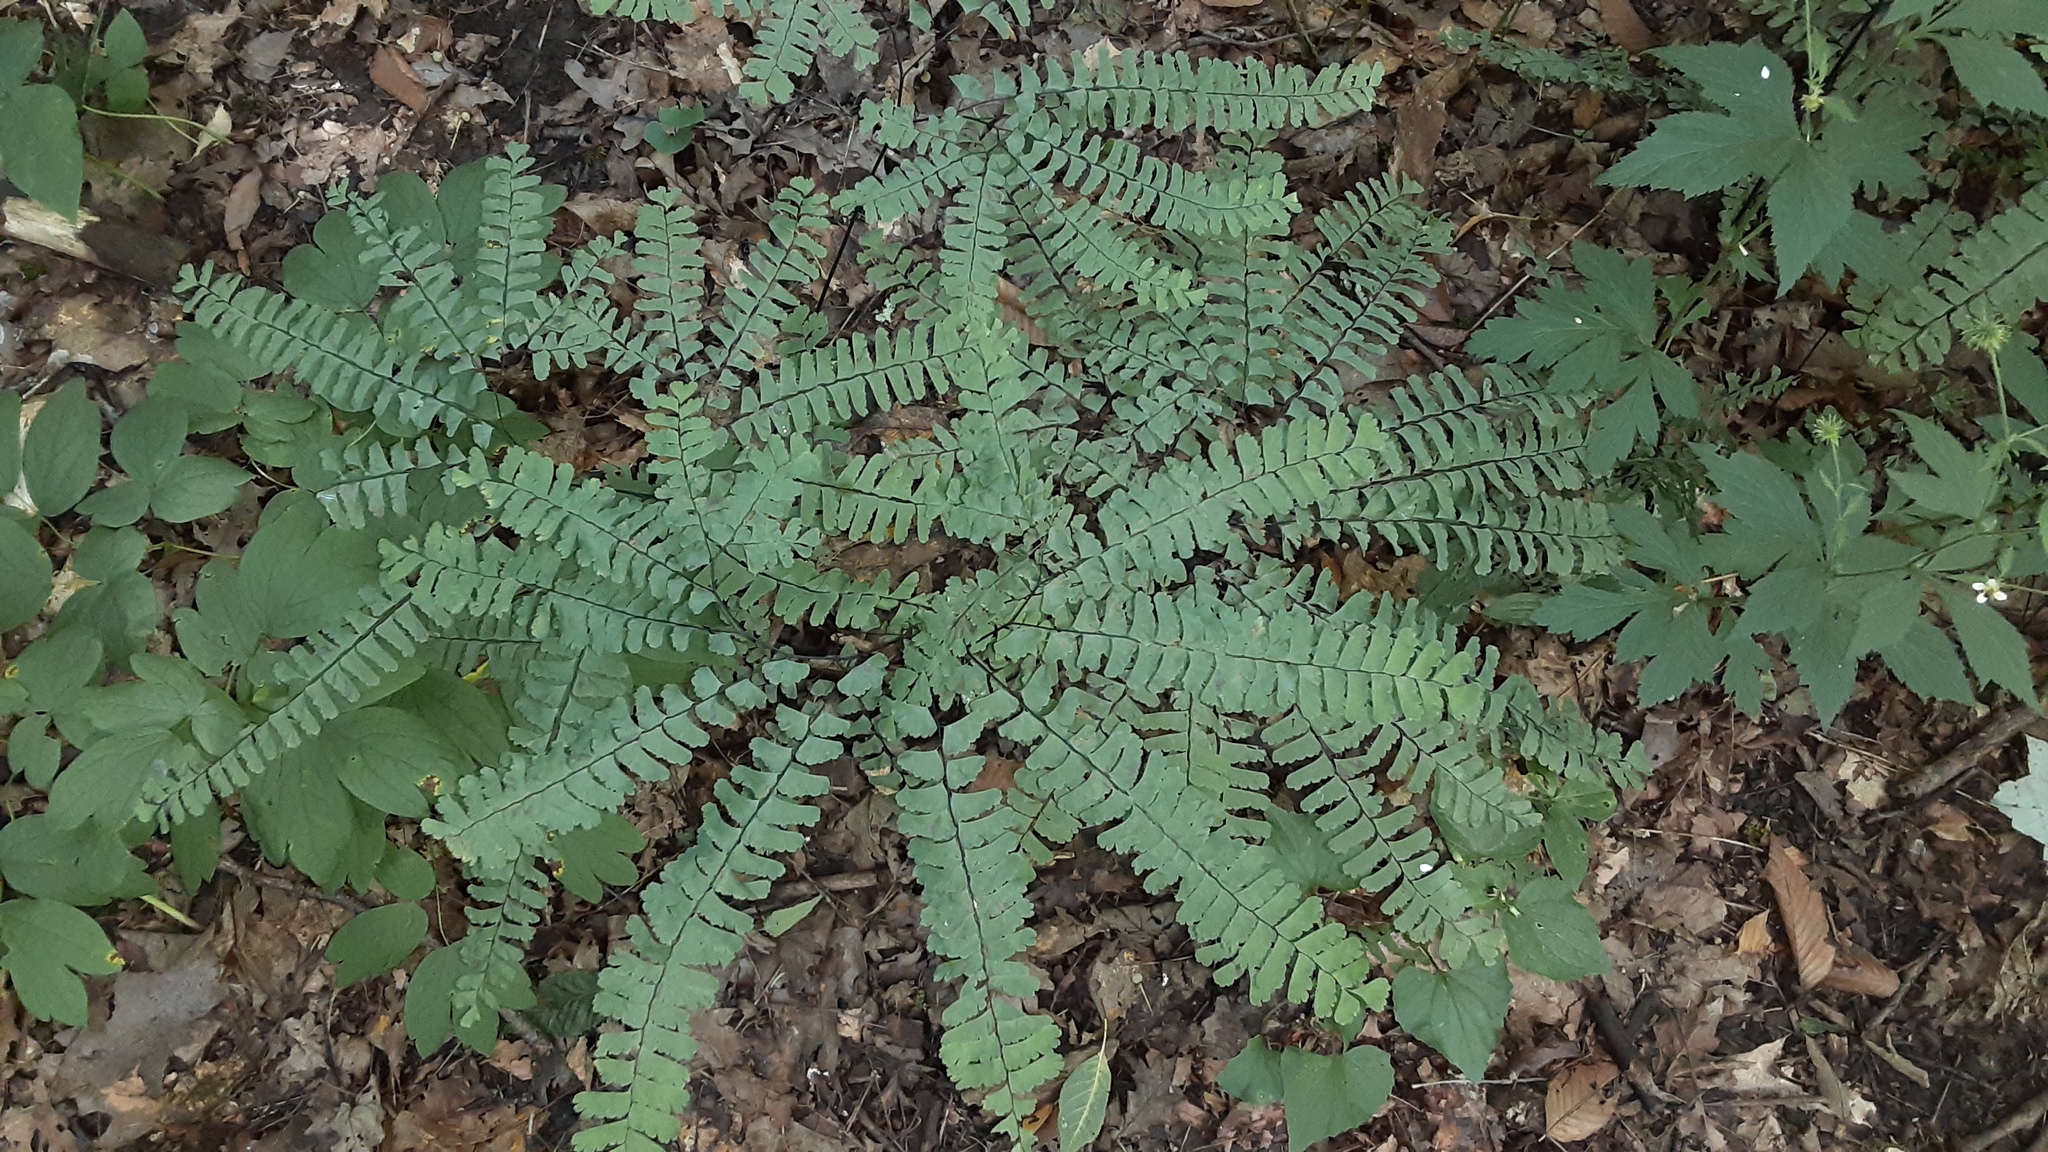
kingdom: Plantae
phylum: Tracheophyta
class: Polypodiopsida
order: Polypodiales
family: Pteridaceae
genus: Adiantum
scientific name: Adiantum pedatum
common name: Five-finger fern
